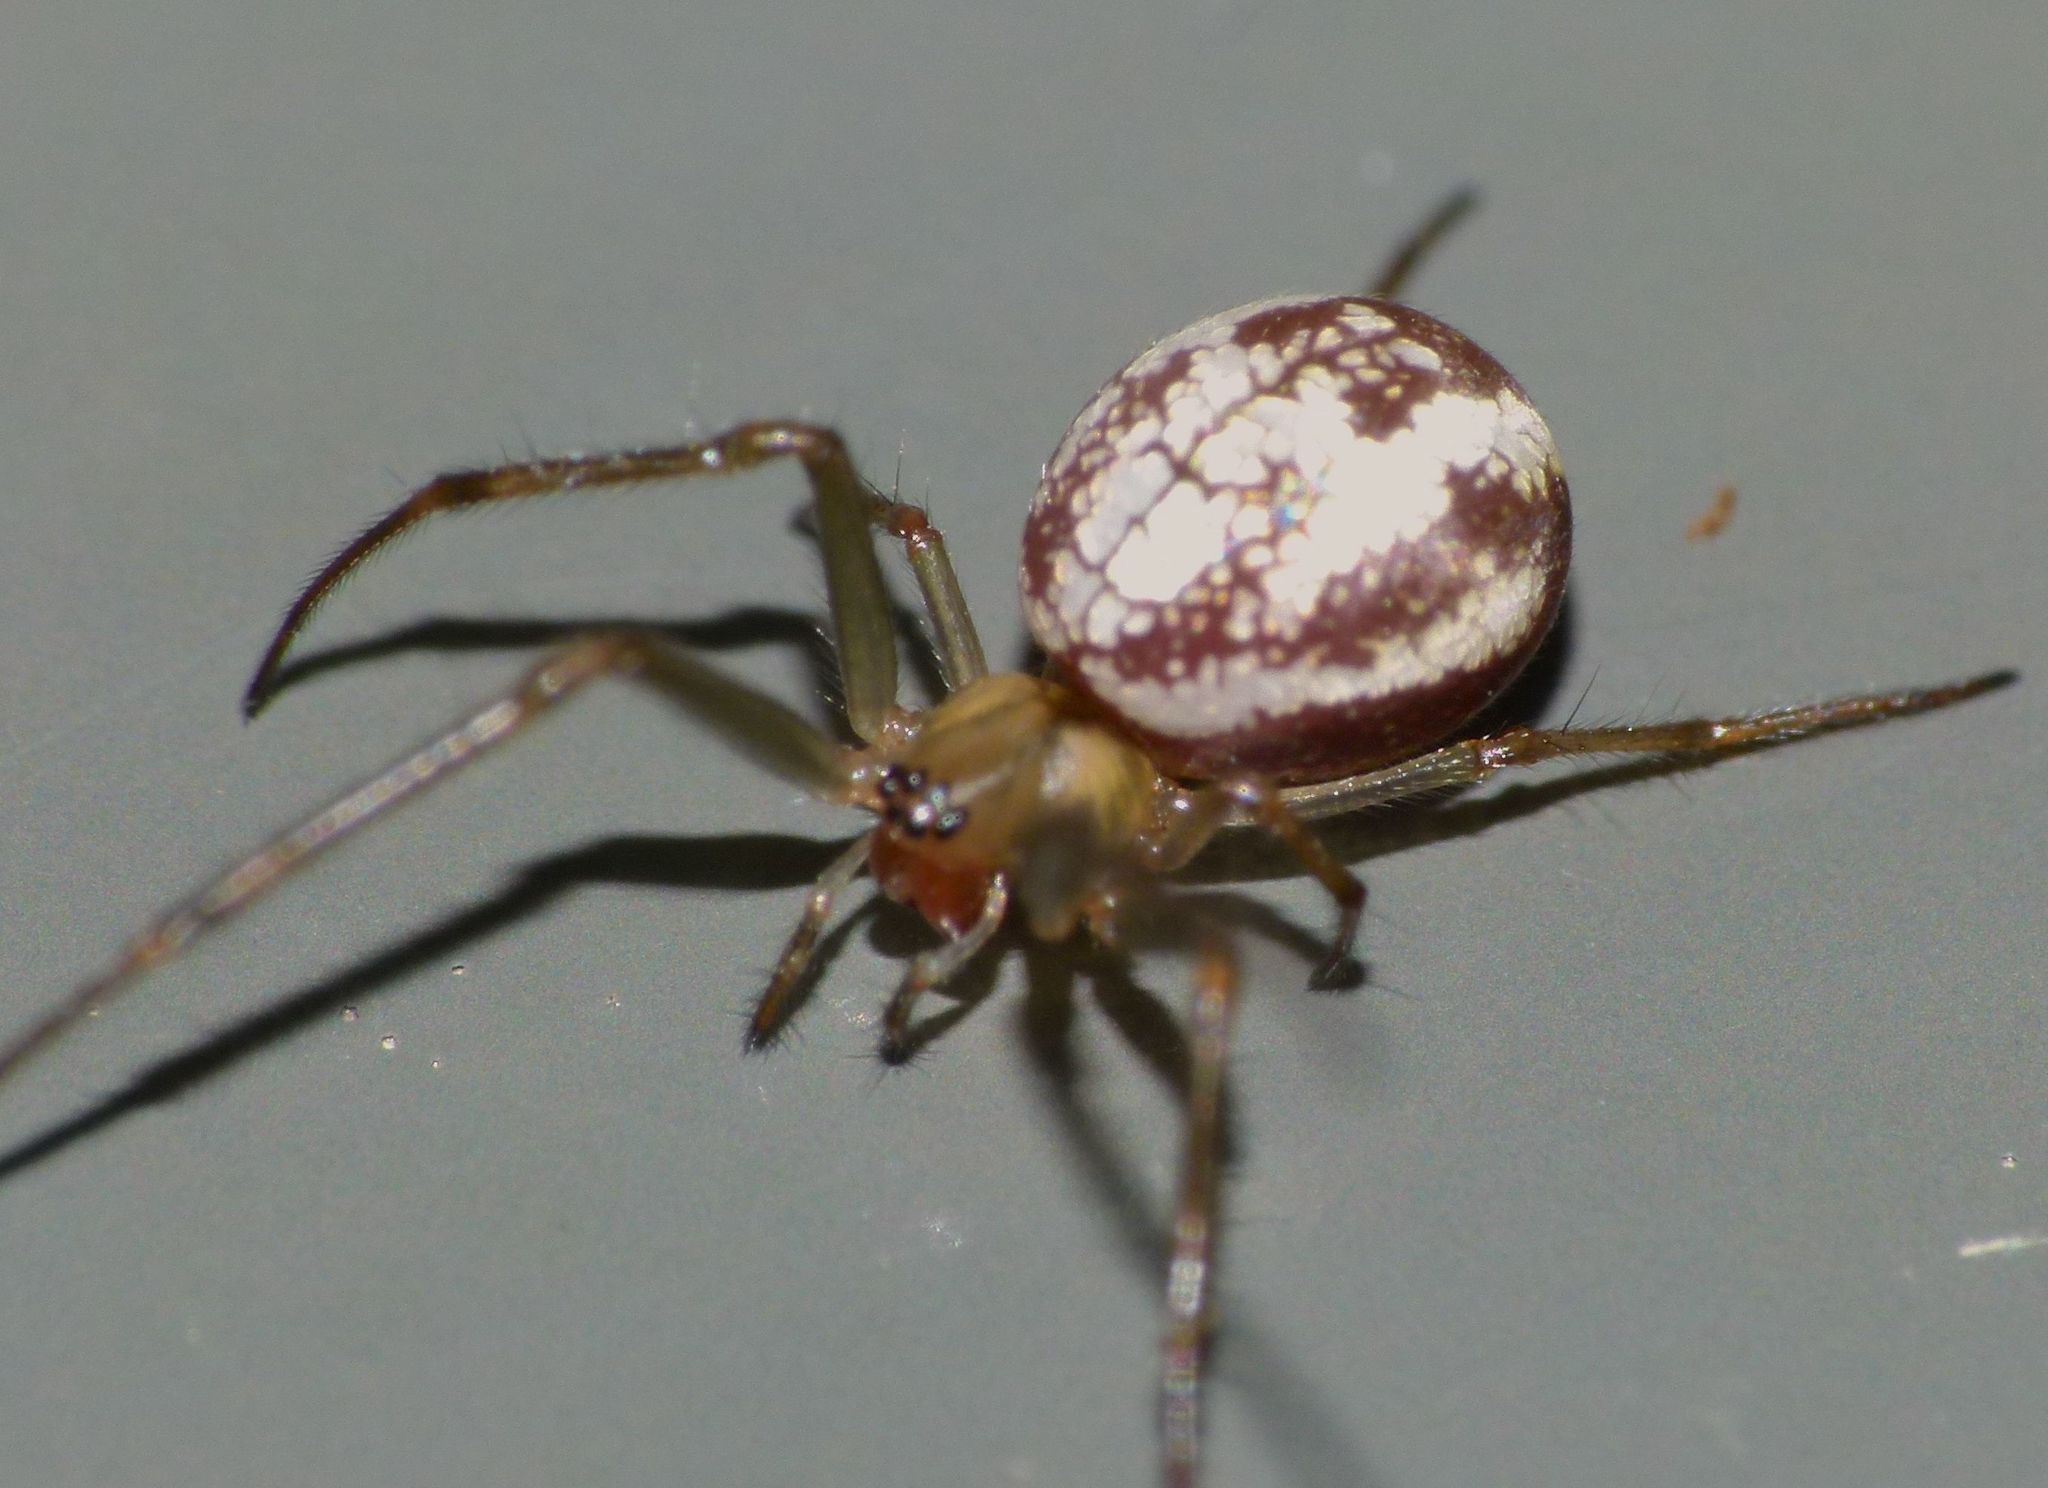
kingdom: Animalia
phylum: Arthropoda
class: Arachnida
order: Araneae
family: Tetragnathidae
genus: Nanometa
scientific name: Nanometa forsteri
